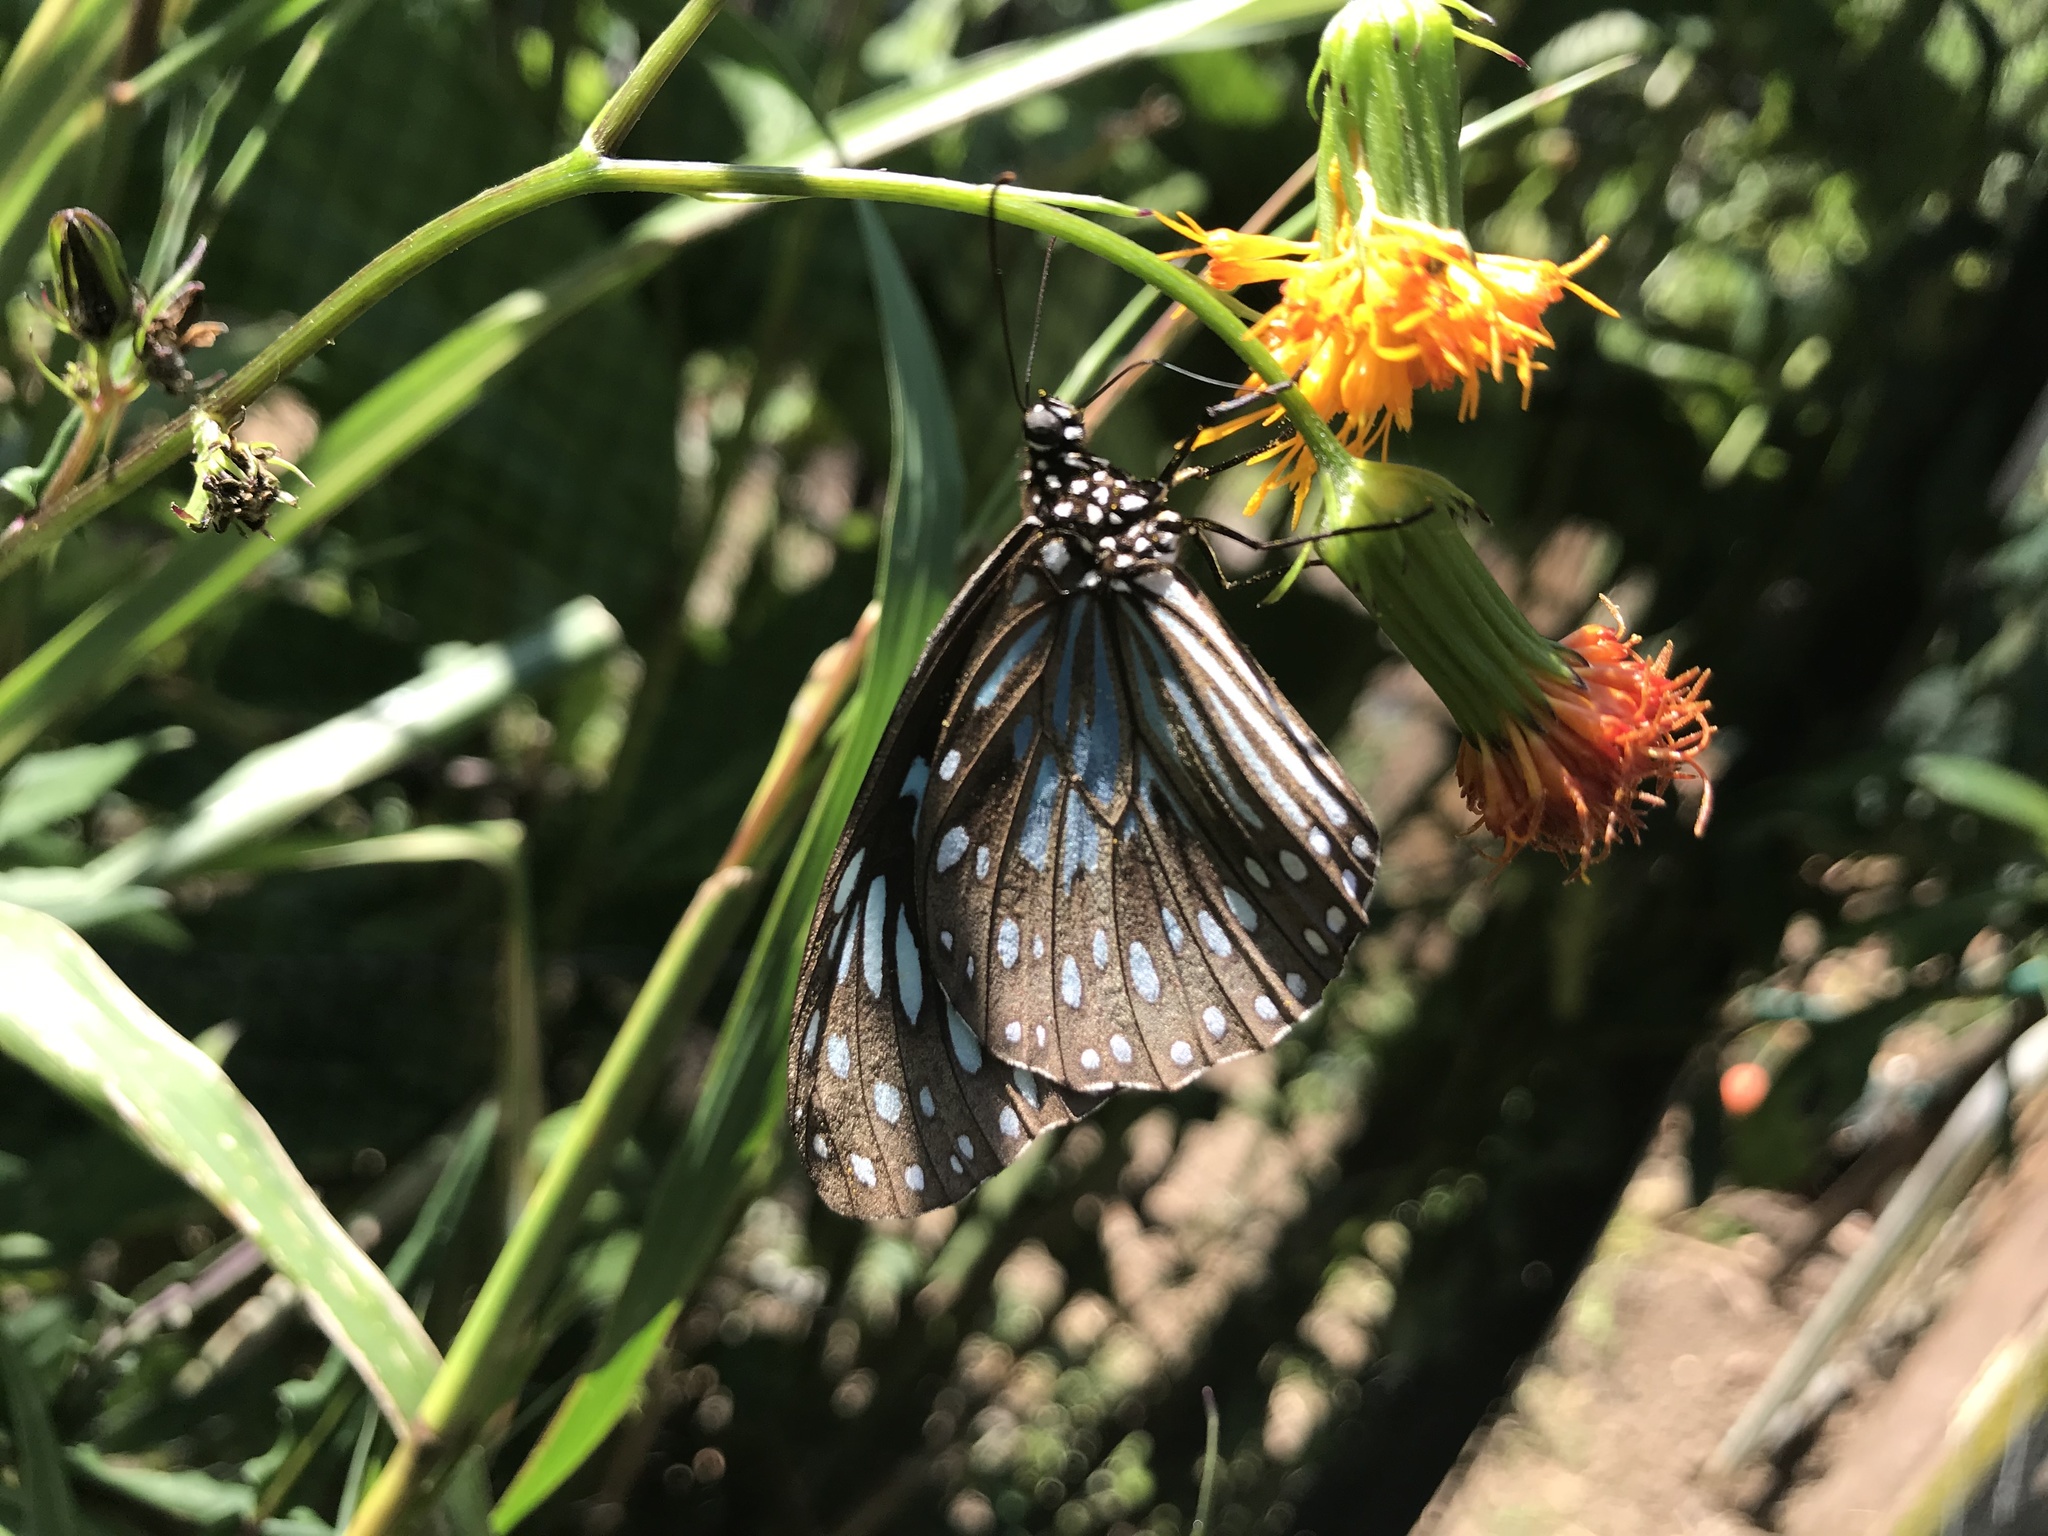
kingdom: Animalia
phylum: Arthropoda
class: Insecta
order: Lepidoptera
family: Nymphalidae
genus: Tirumala
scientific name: Tirumala hamata
